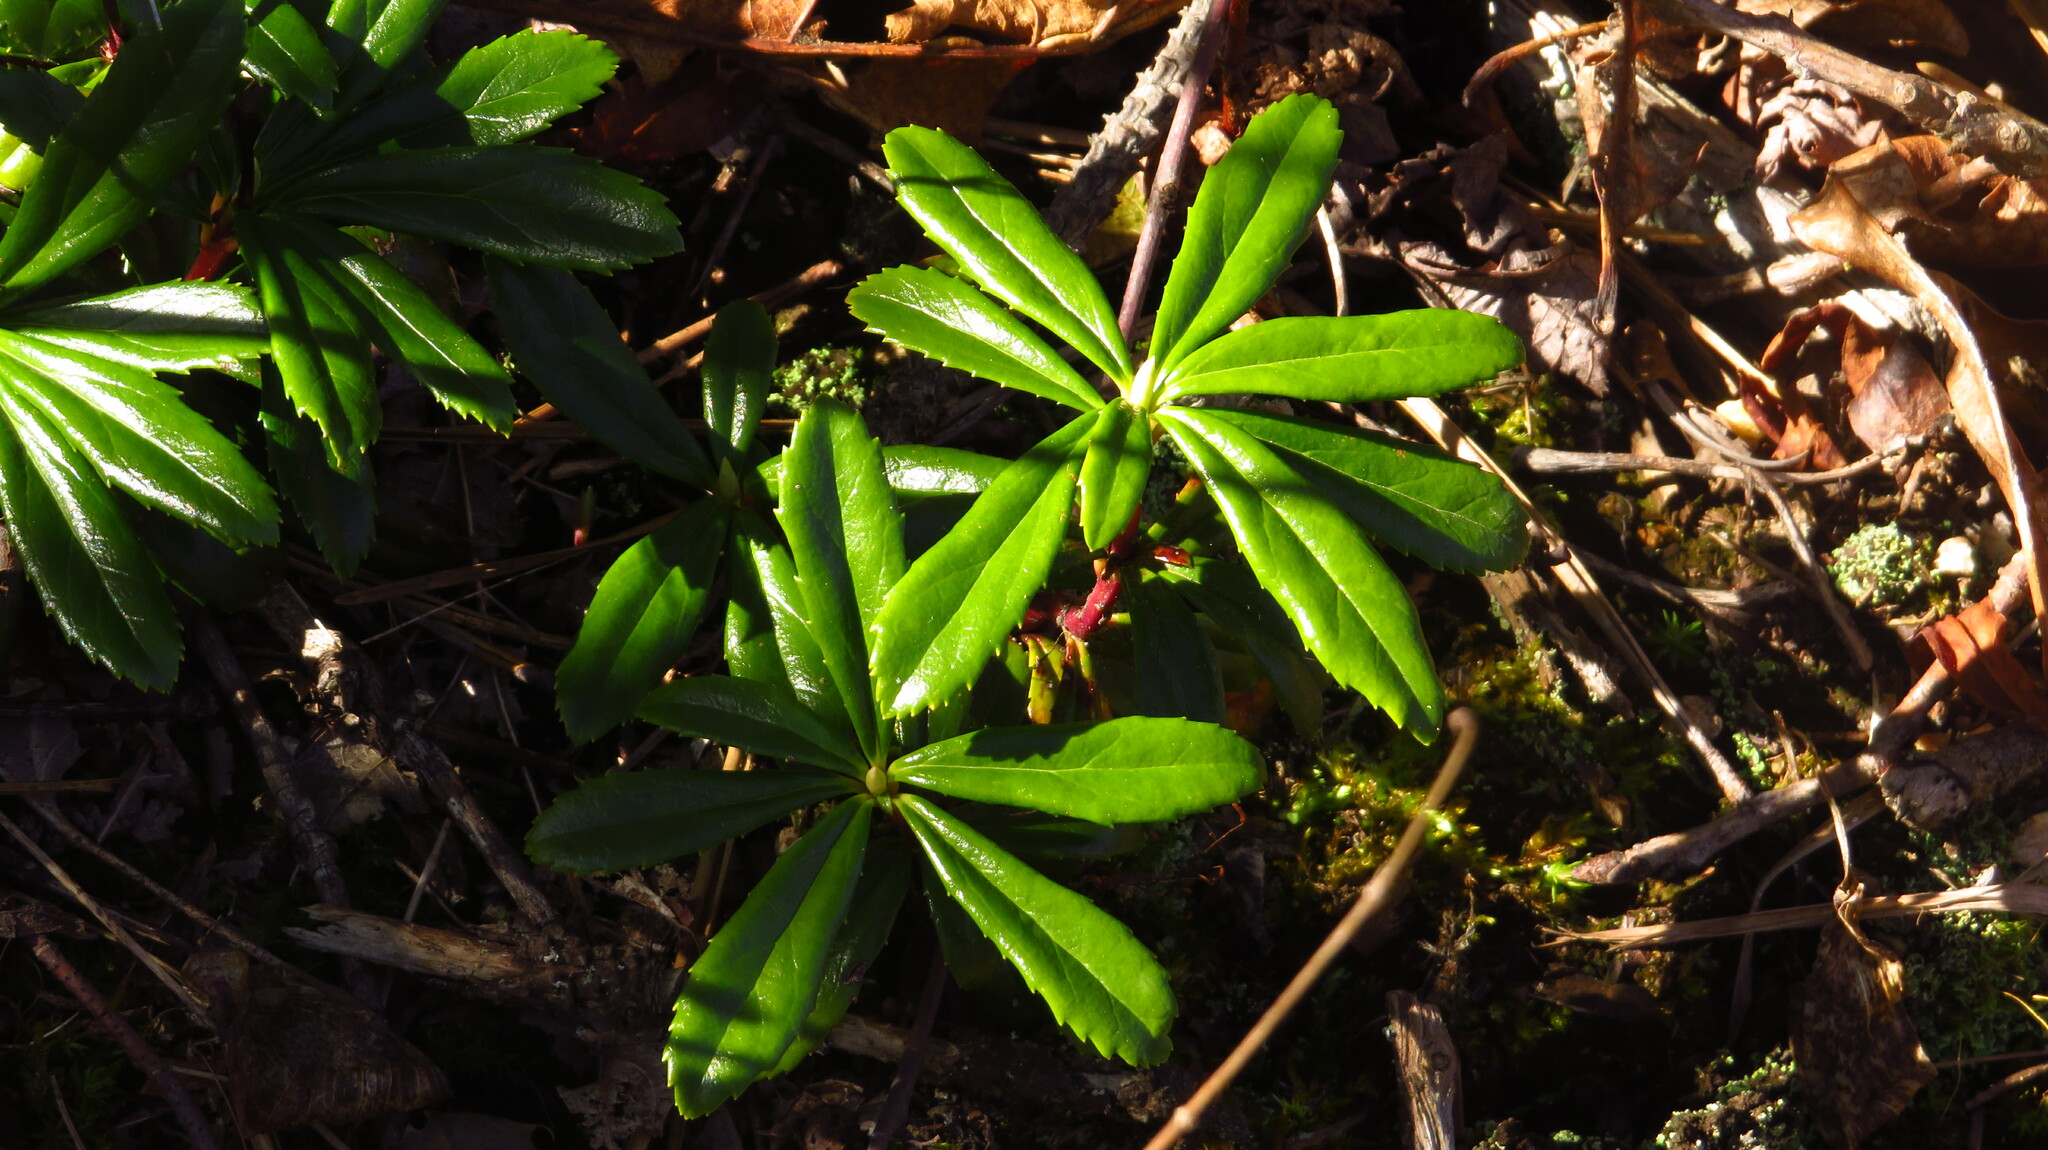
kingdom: Plantae
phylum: Tracheophyta
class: Magnoliopsida
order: Ericales
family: Ericaceae
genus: Chimaphila
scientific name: Chimaphila umbellata
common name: Pipsissewa
